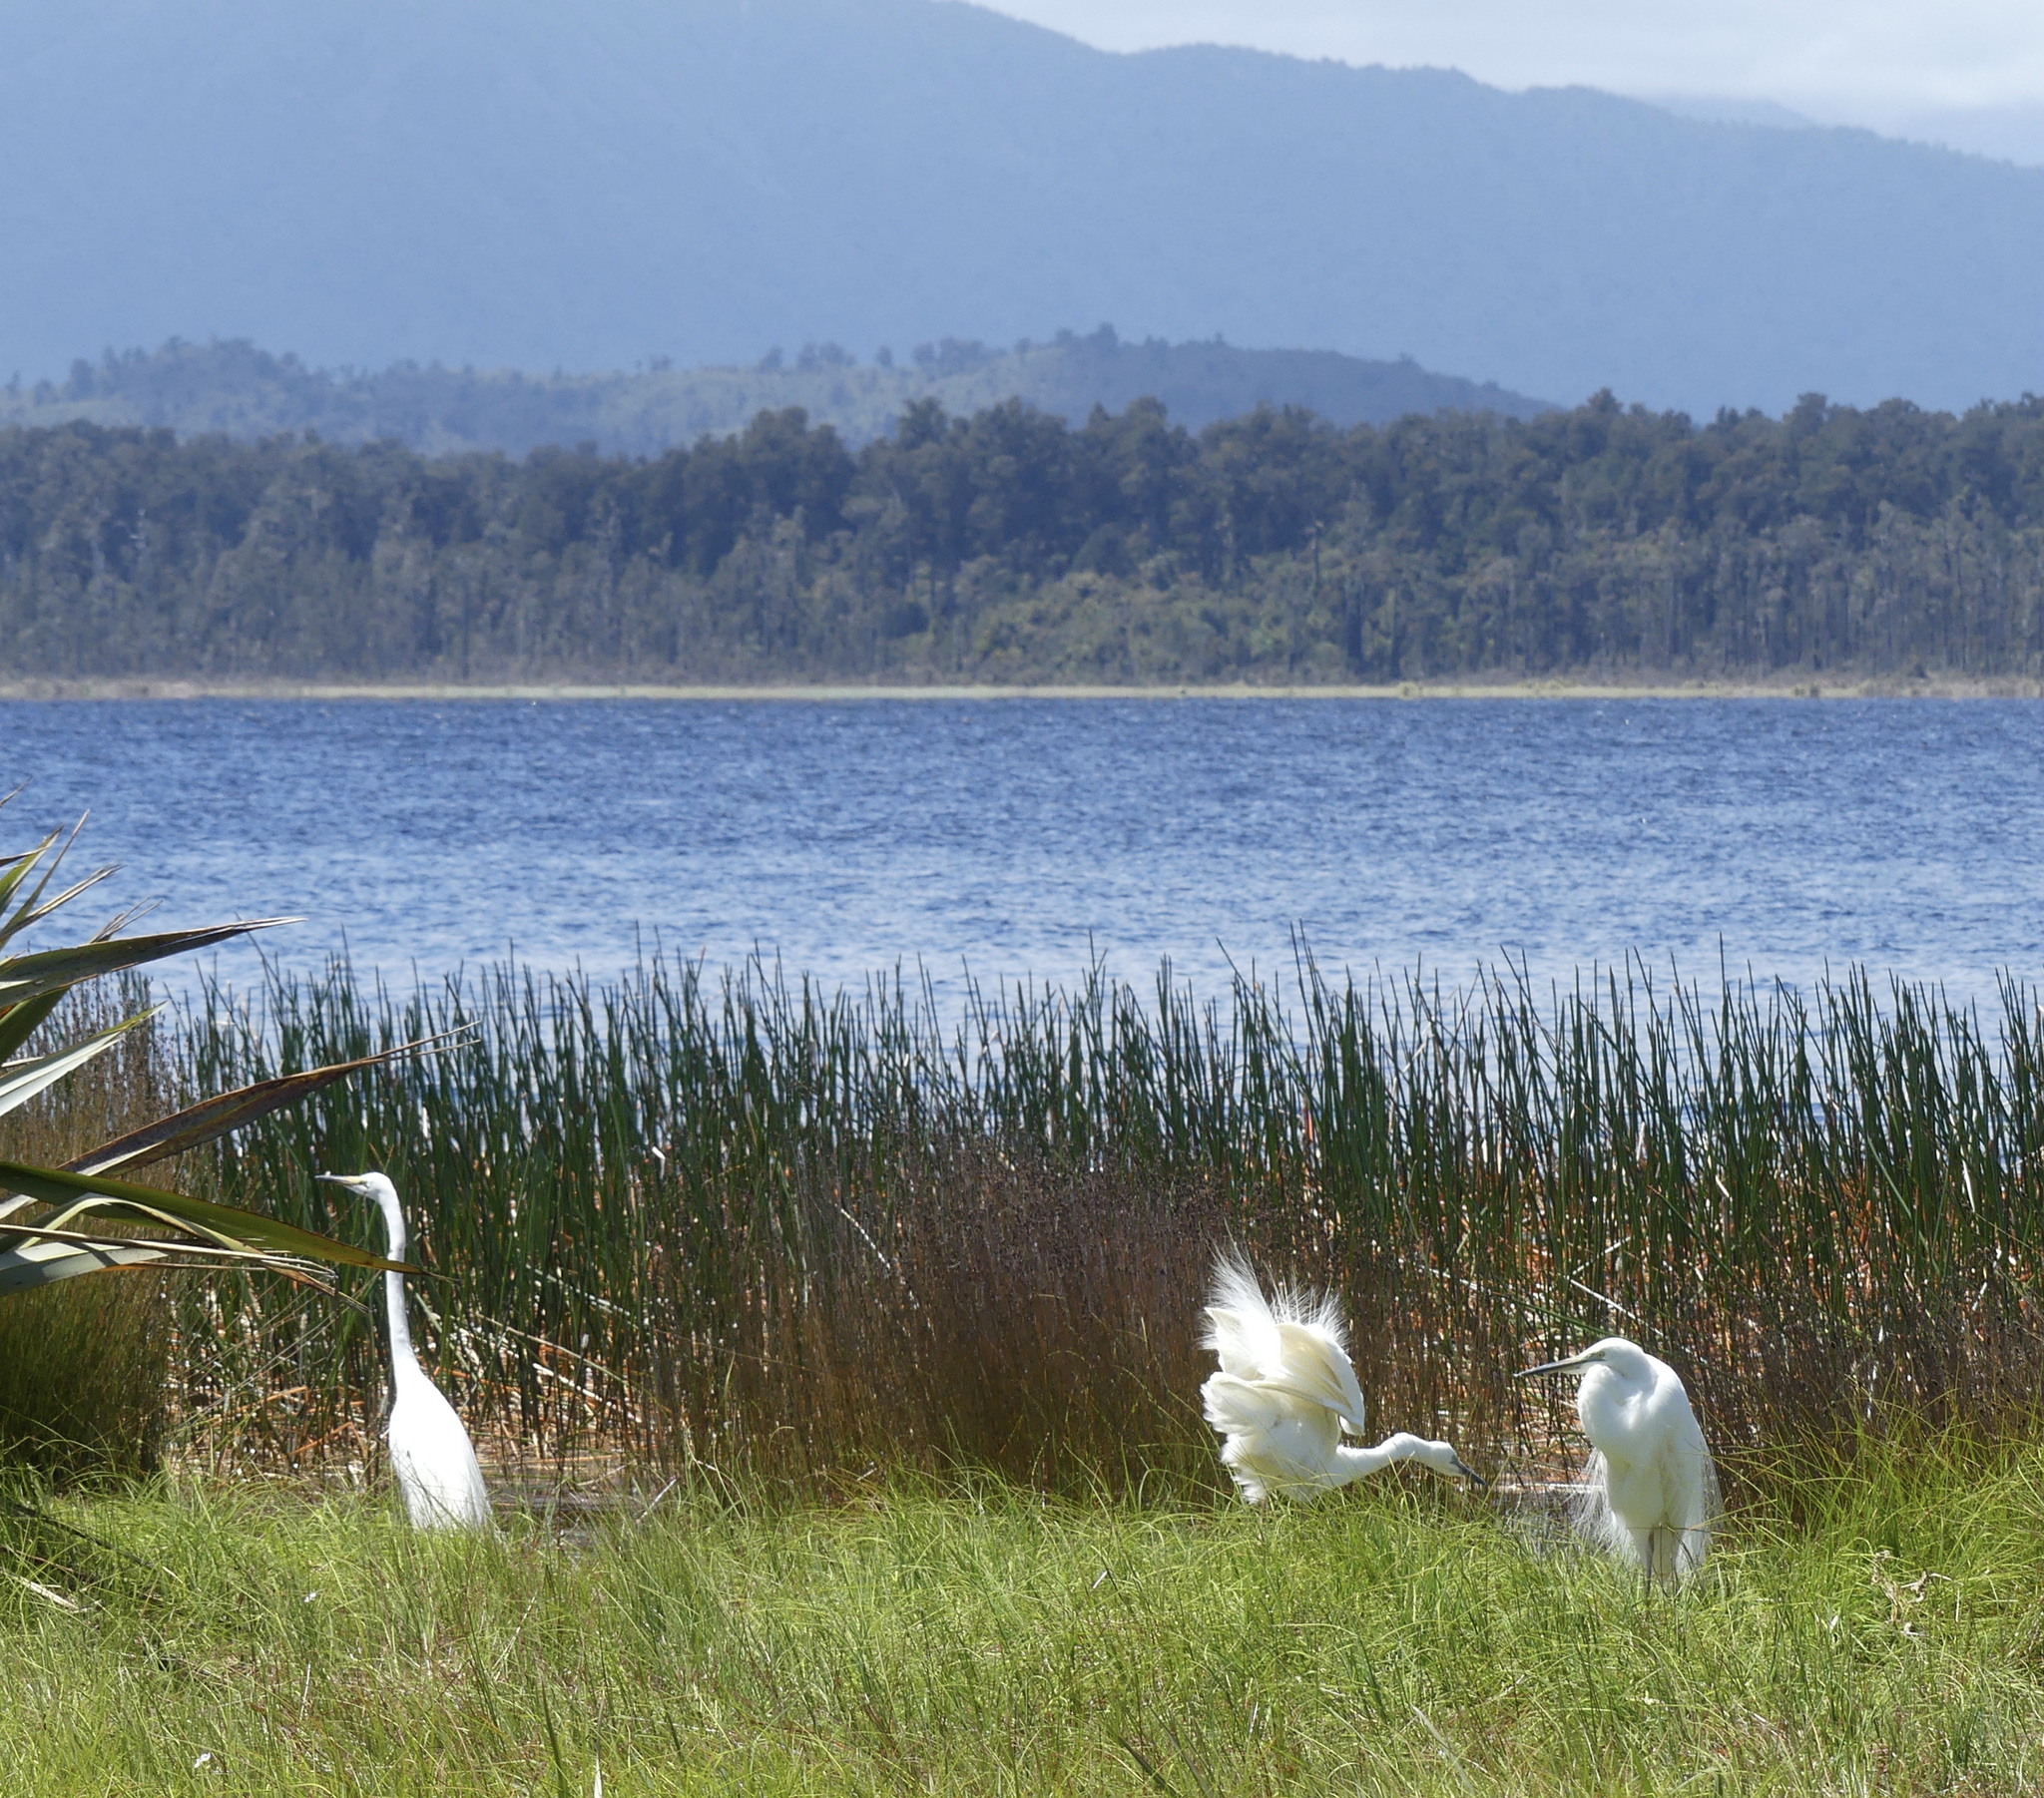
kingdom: Animalia
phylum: Chordata
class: Aves
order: Pelecaniformes
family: Ardeidae
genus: Ardea
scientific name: Ardea modesta
